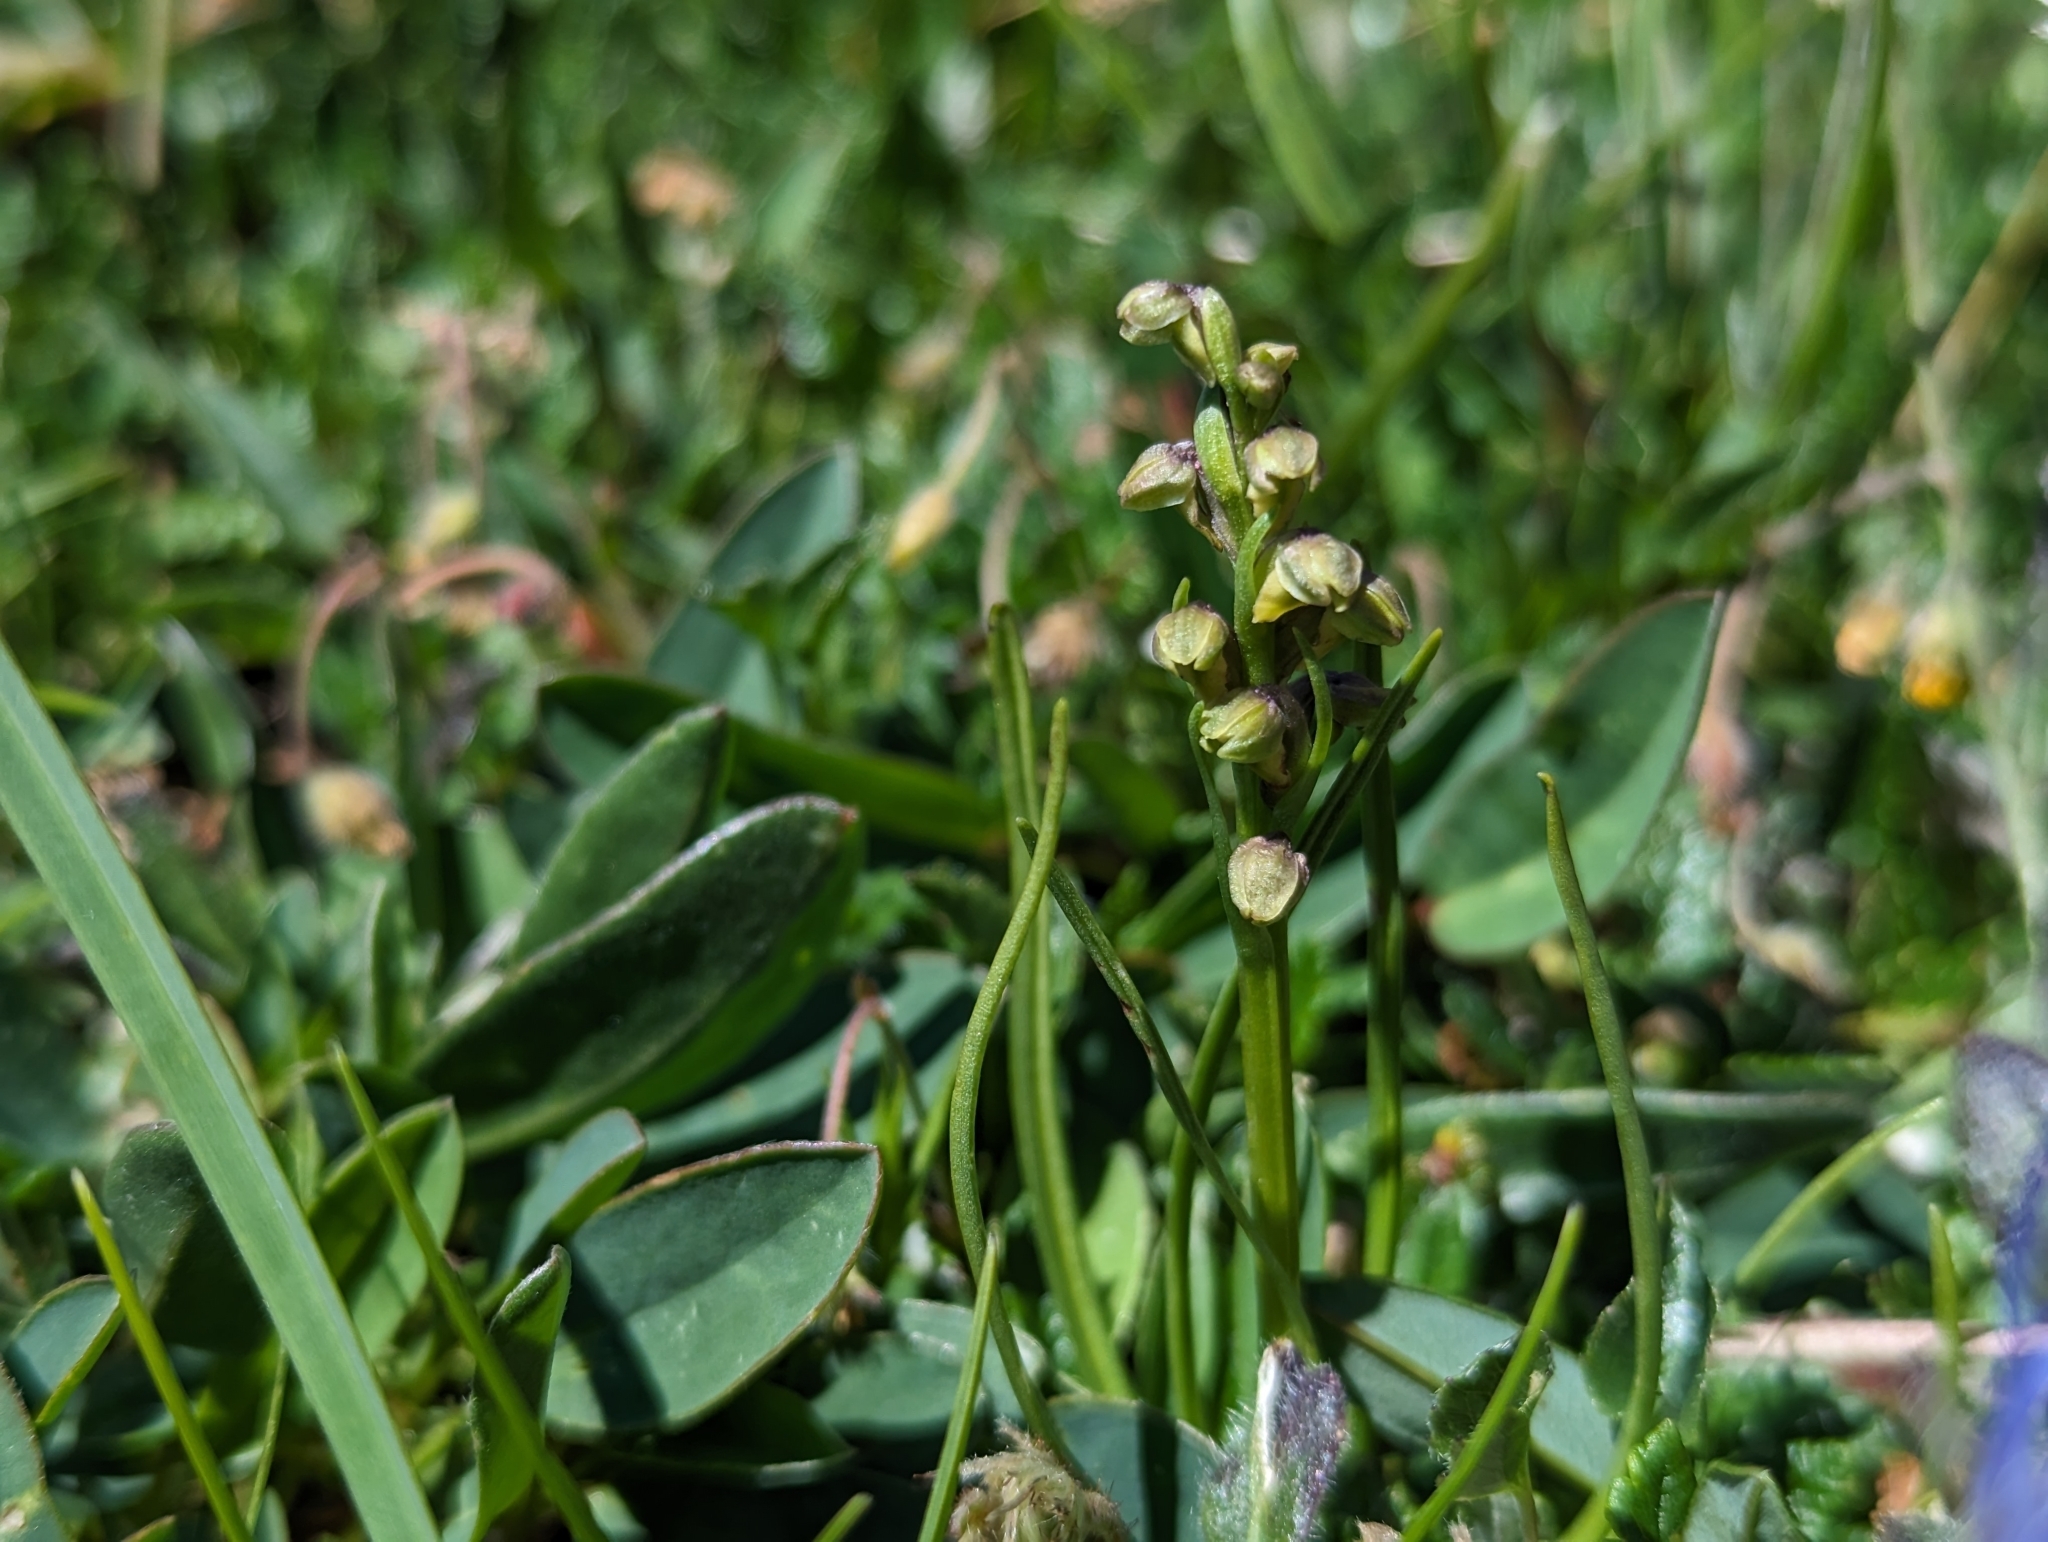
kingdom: Plantae
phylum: Tracheophyta
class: Liliopsida
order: Asparagales
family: Orchidaceae
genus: Chamorchis
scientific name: Chamorchis alpina
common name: Alpine chamorchis
